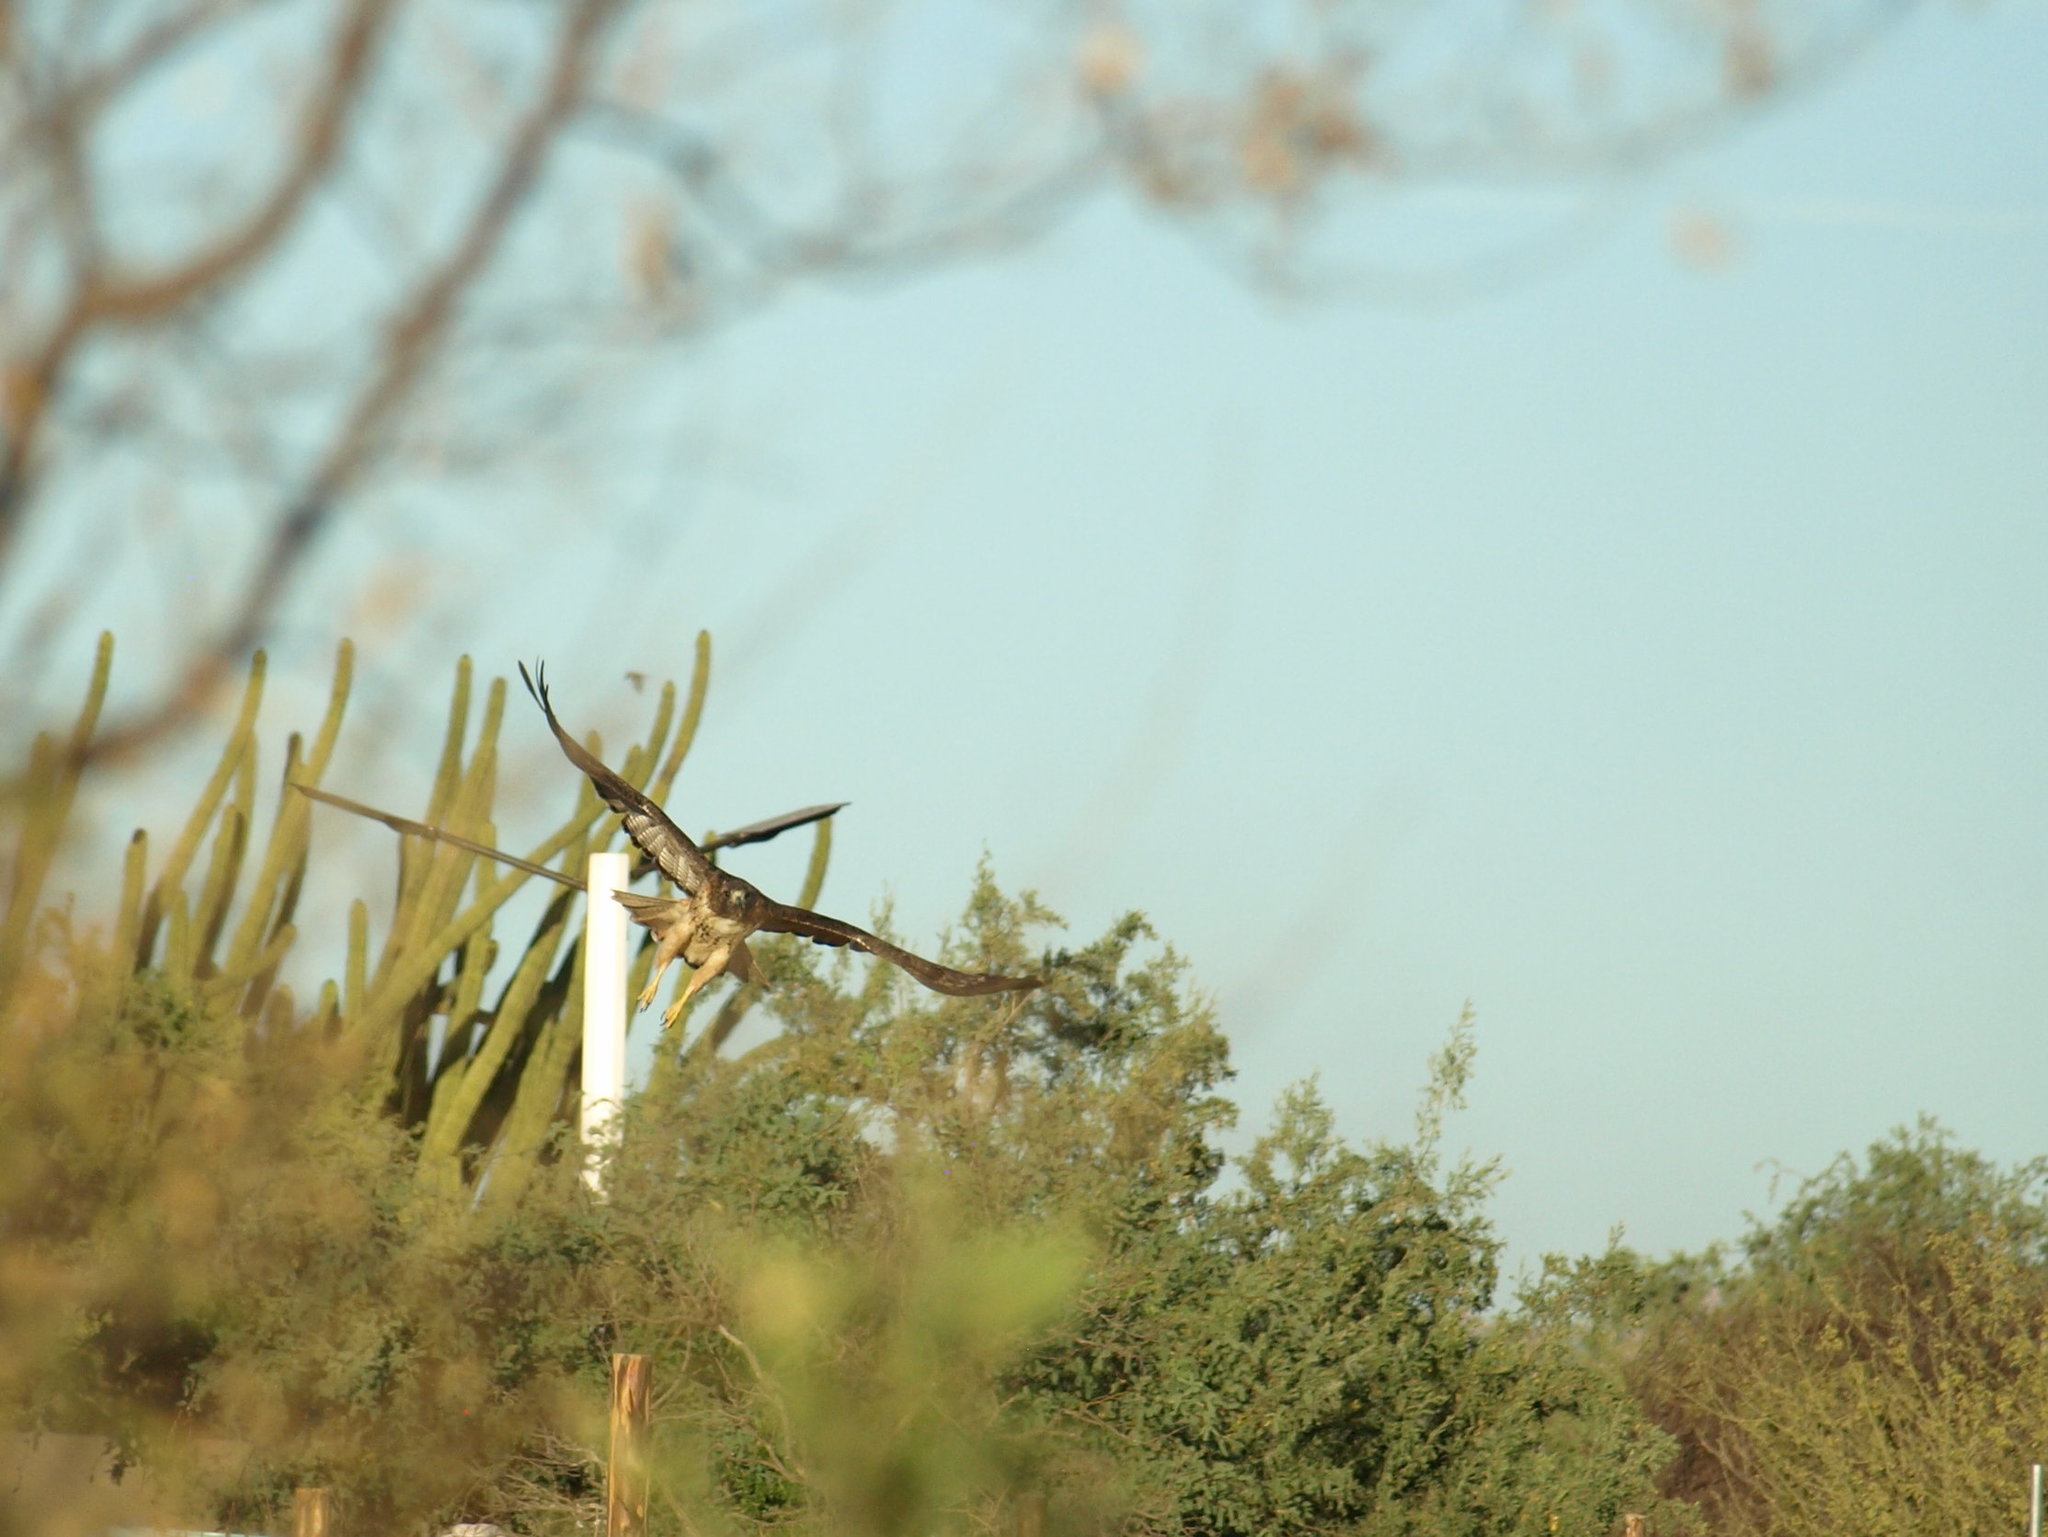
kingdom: Animalia
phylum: Chordata
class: Aves
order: Accipitriformes
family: Accipitridae
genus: Buteo
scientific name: Buteo jamaicensis
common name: Red-tailed hawk
